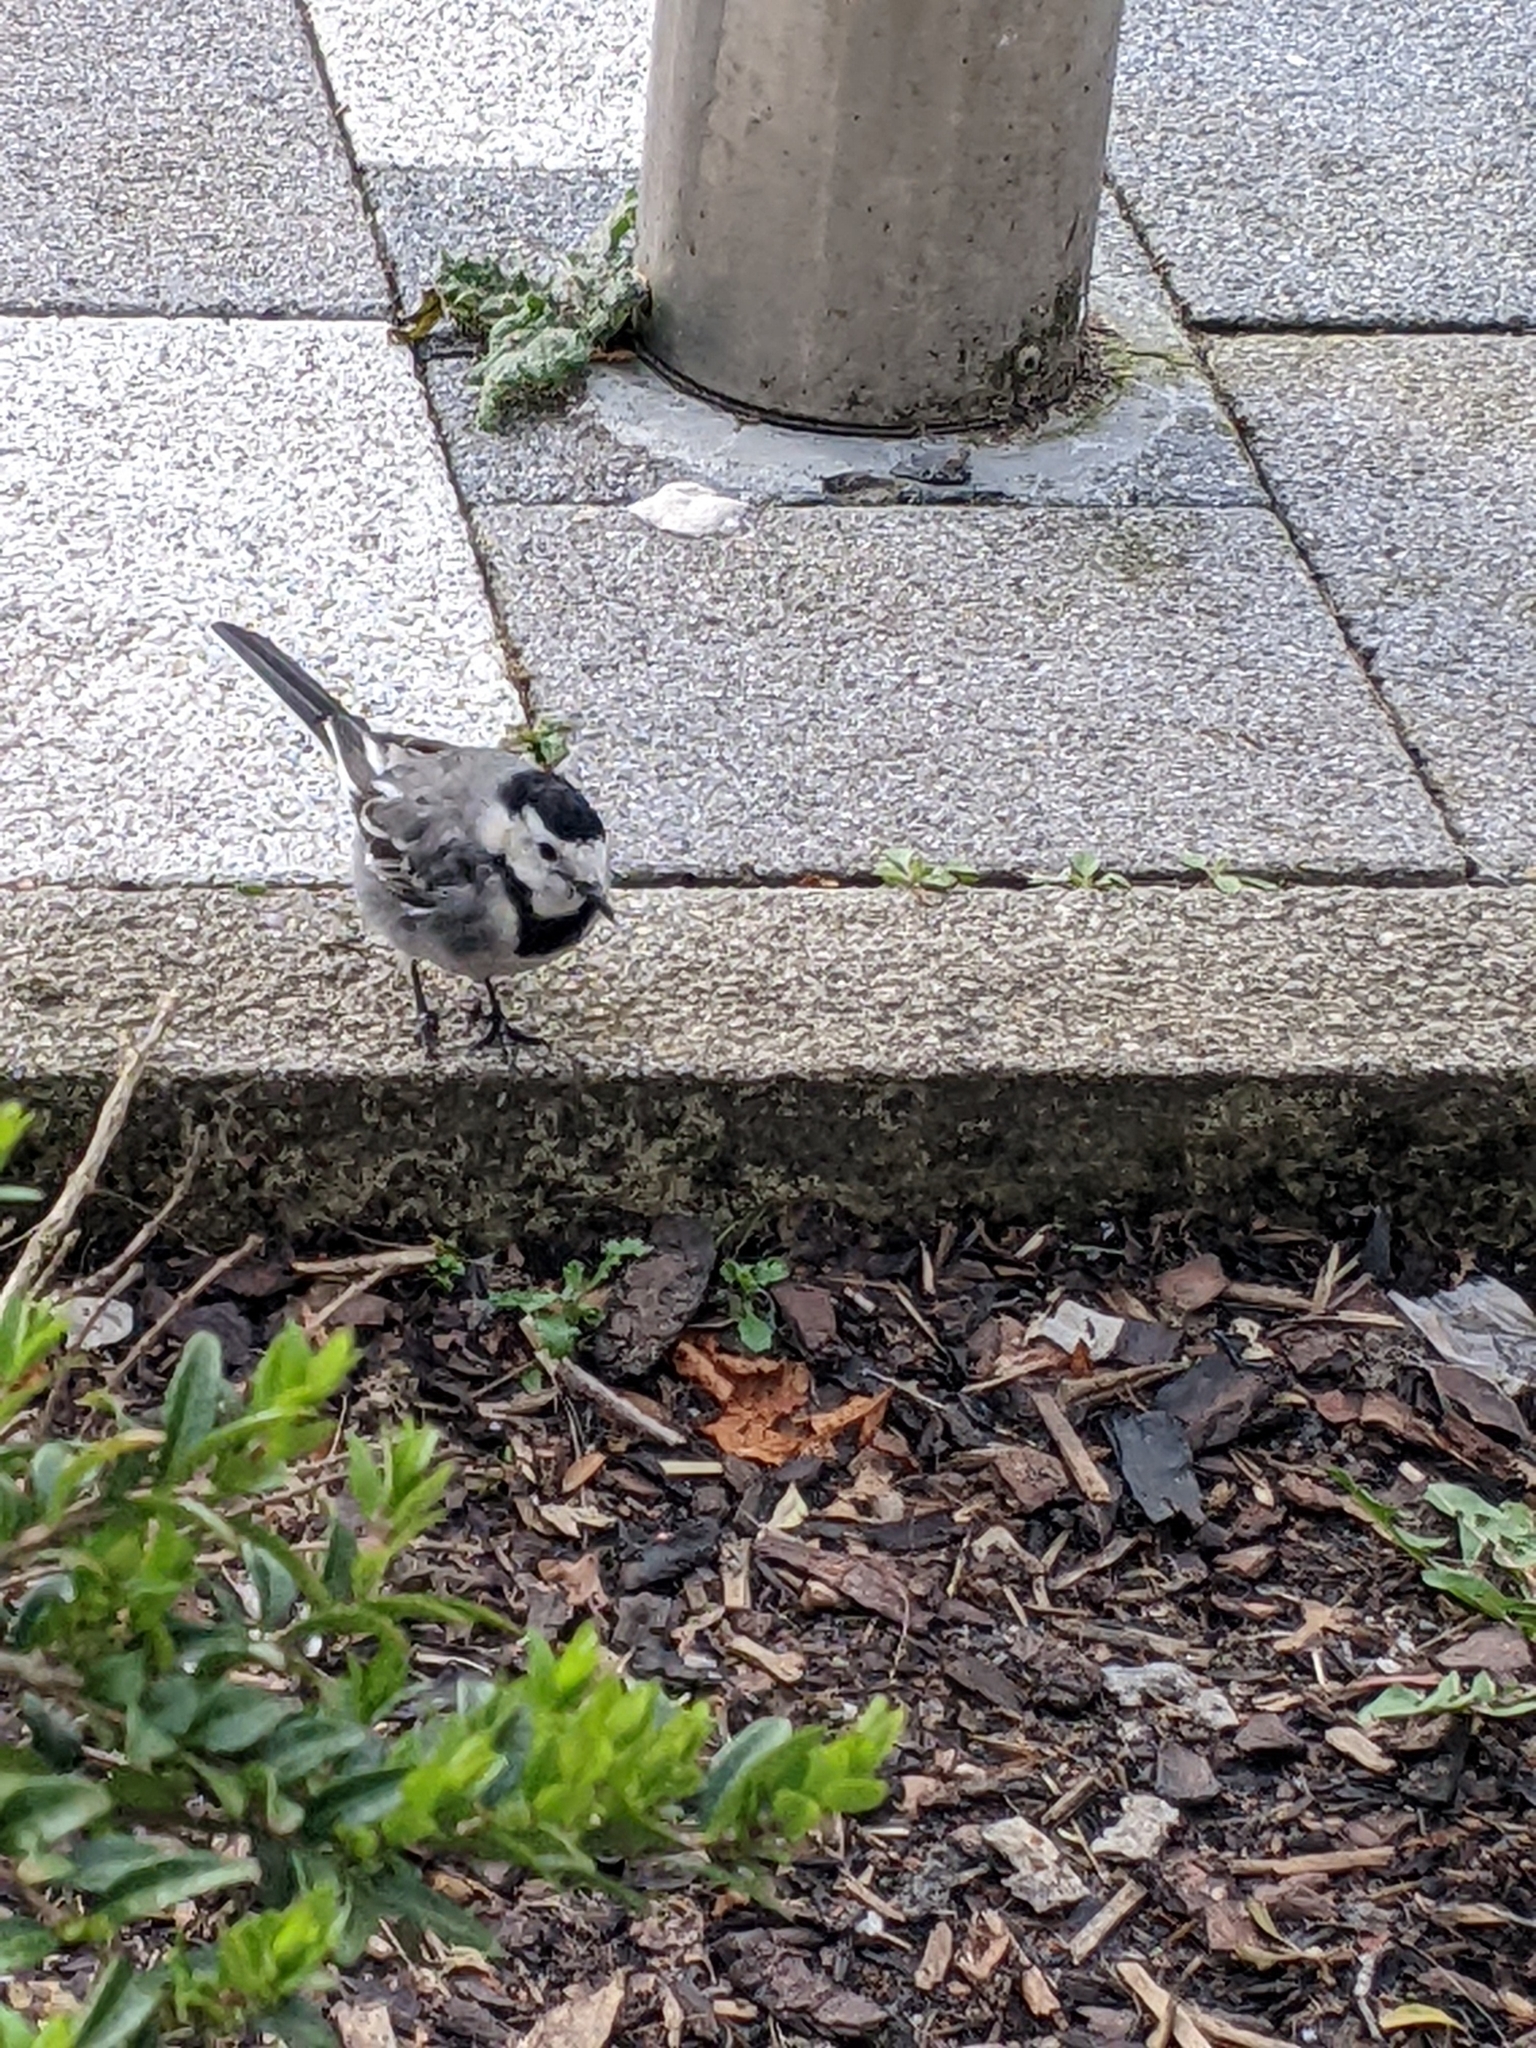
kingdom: Animalia
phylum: Chordata
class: Aves
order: Passeriformes
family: Motacillidae
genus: Motacilla
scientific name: Motacilla alba
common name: White wagtail
